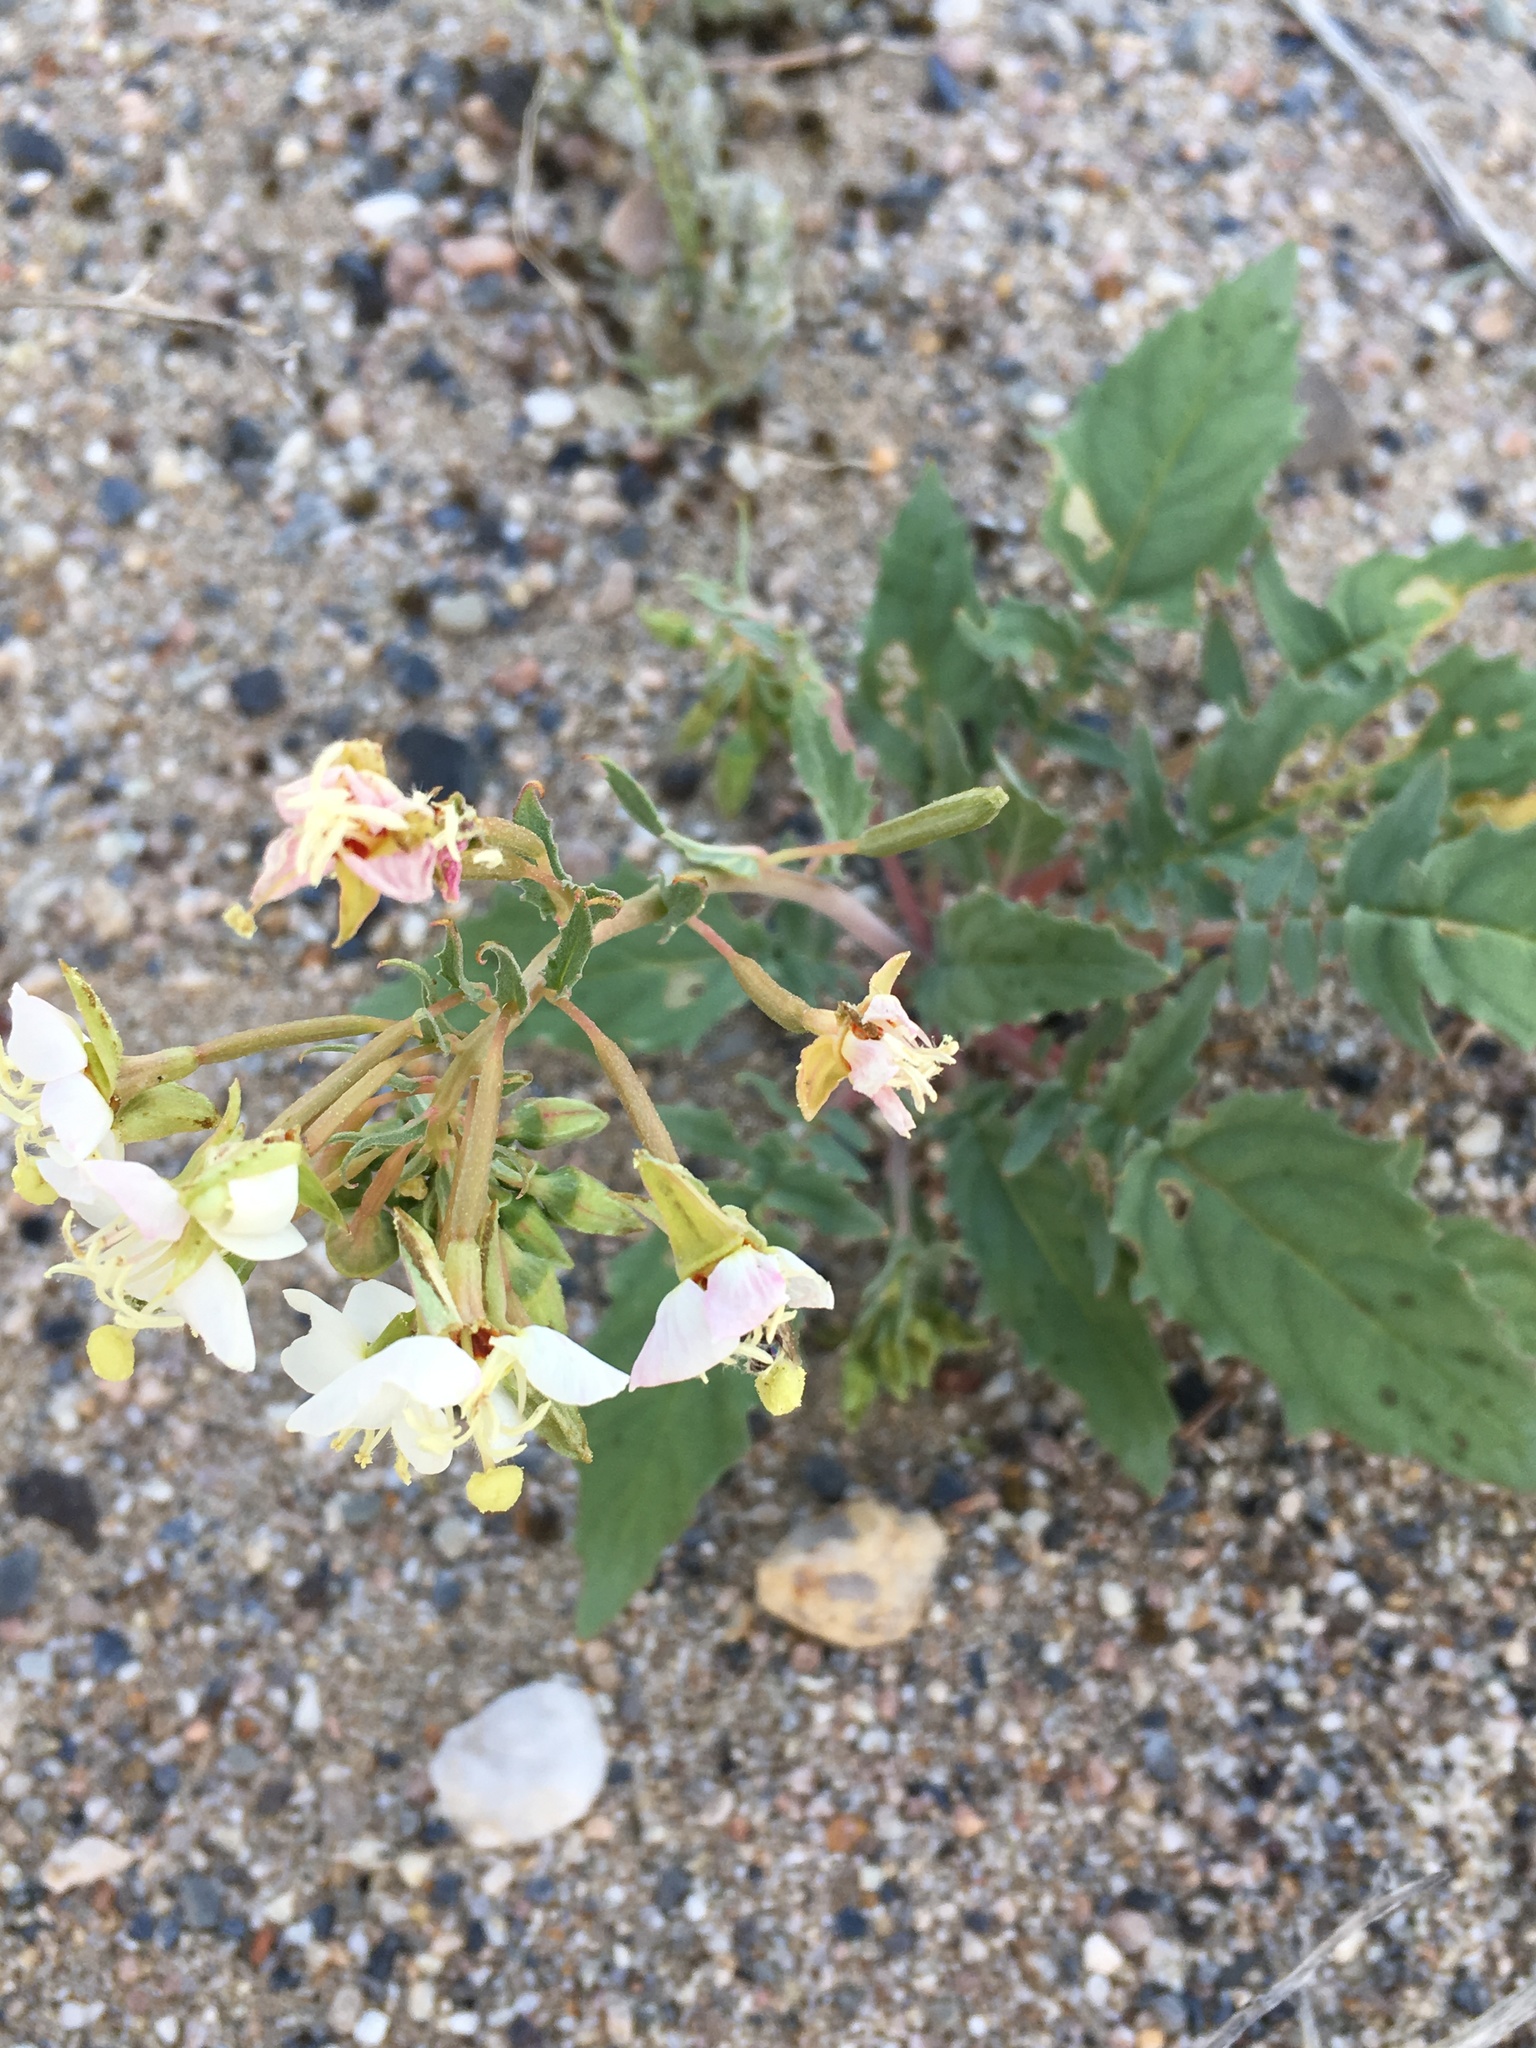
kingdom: Plantae
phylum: Tracheophyta
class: Magnoliopsida
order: Myrtales
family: Onagraceae
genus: Chylismia
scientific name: Chylismia claviformis
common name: Browneyes
